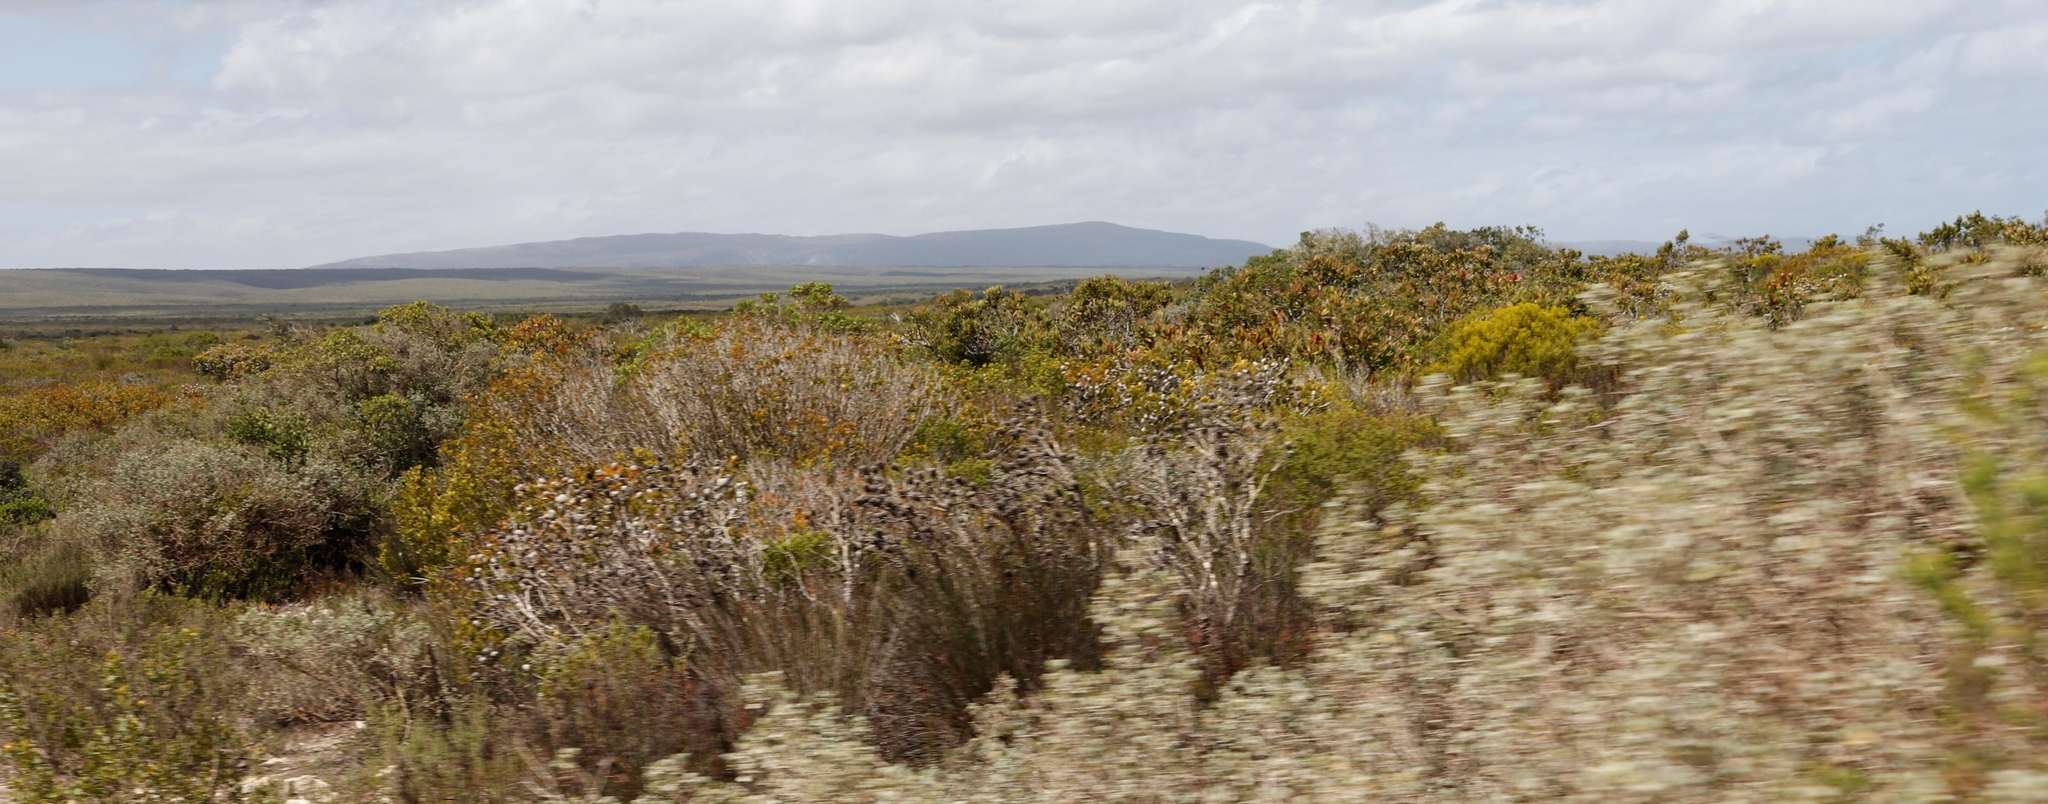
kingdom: Plantae
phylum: Tracheophyta
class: Magnoliopsida
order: Proteales
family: Proteaceae
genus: Leucadendron
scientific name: Leucadendron muirii
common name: Silver-ball conebush
